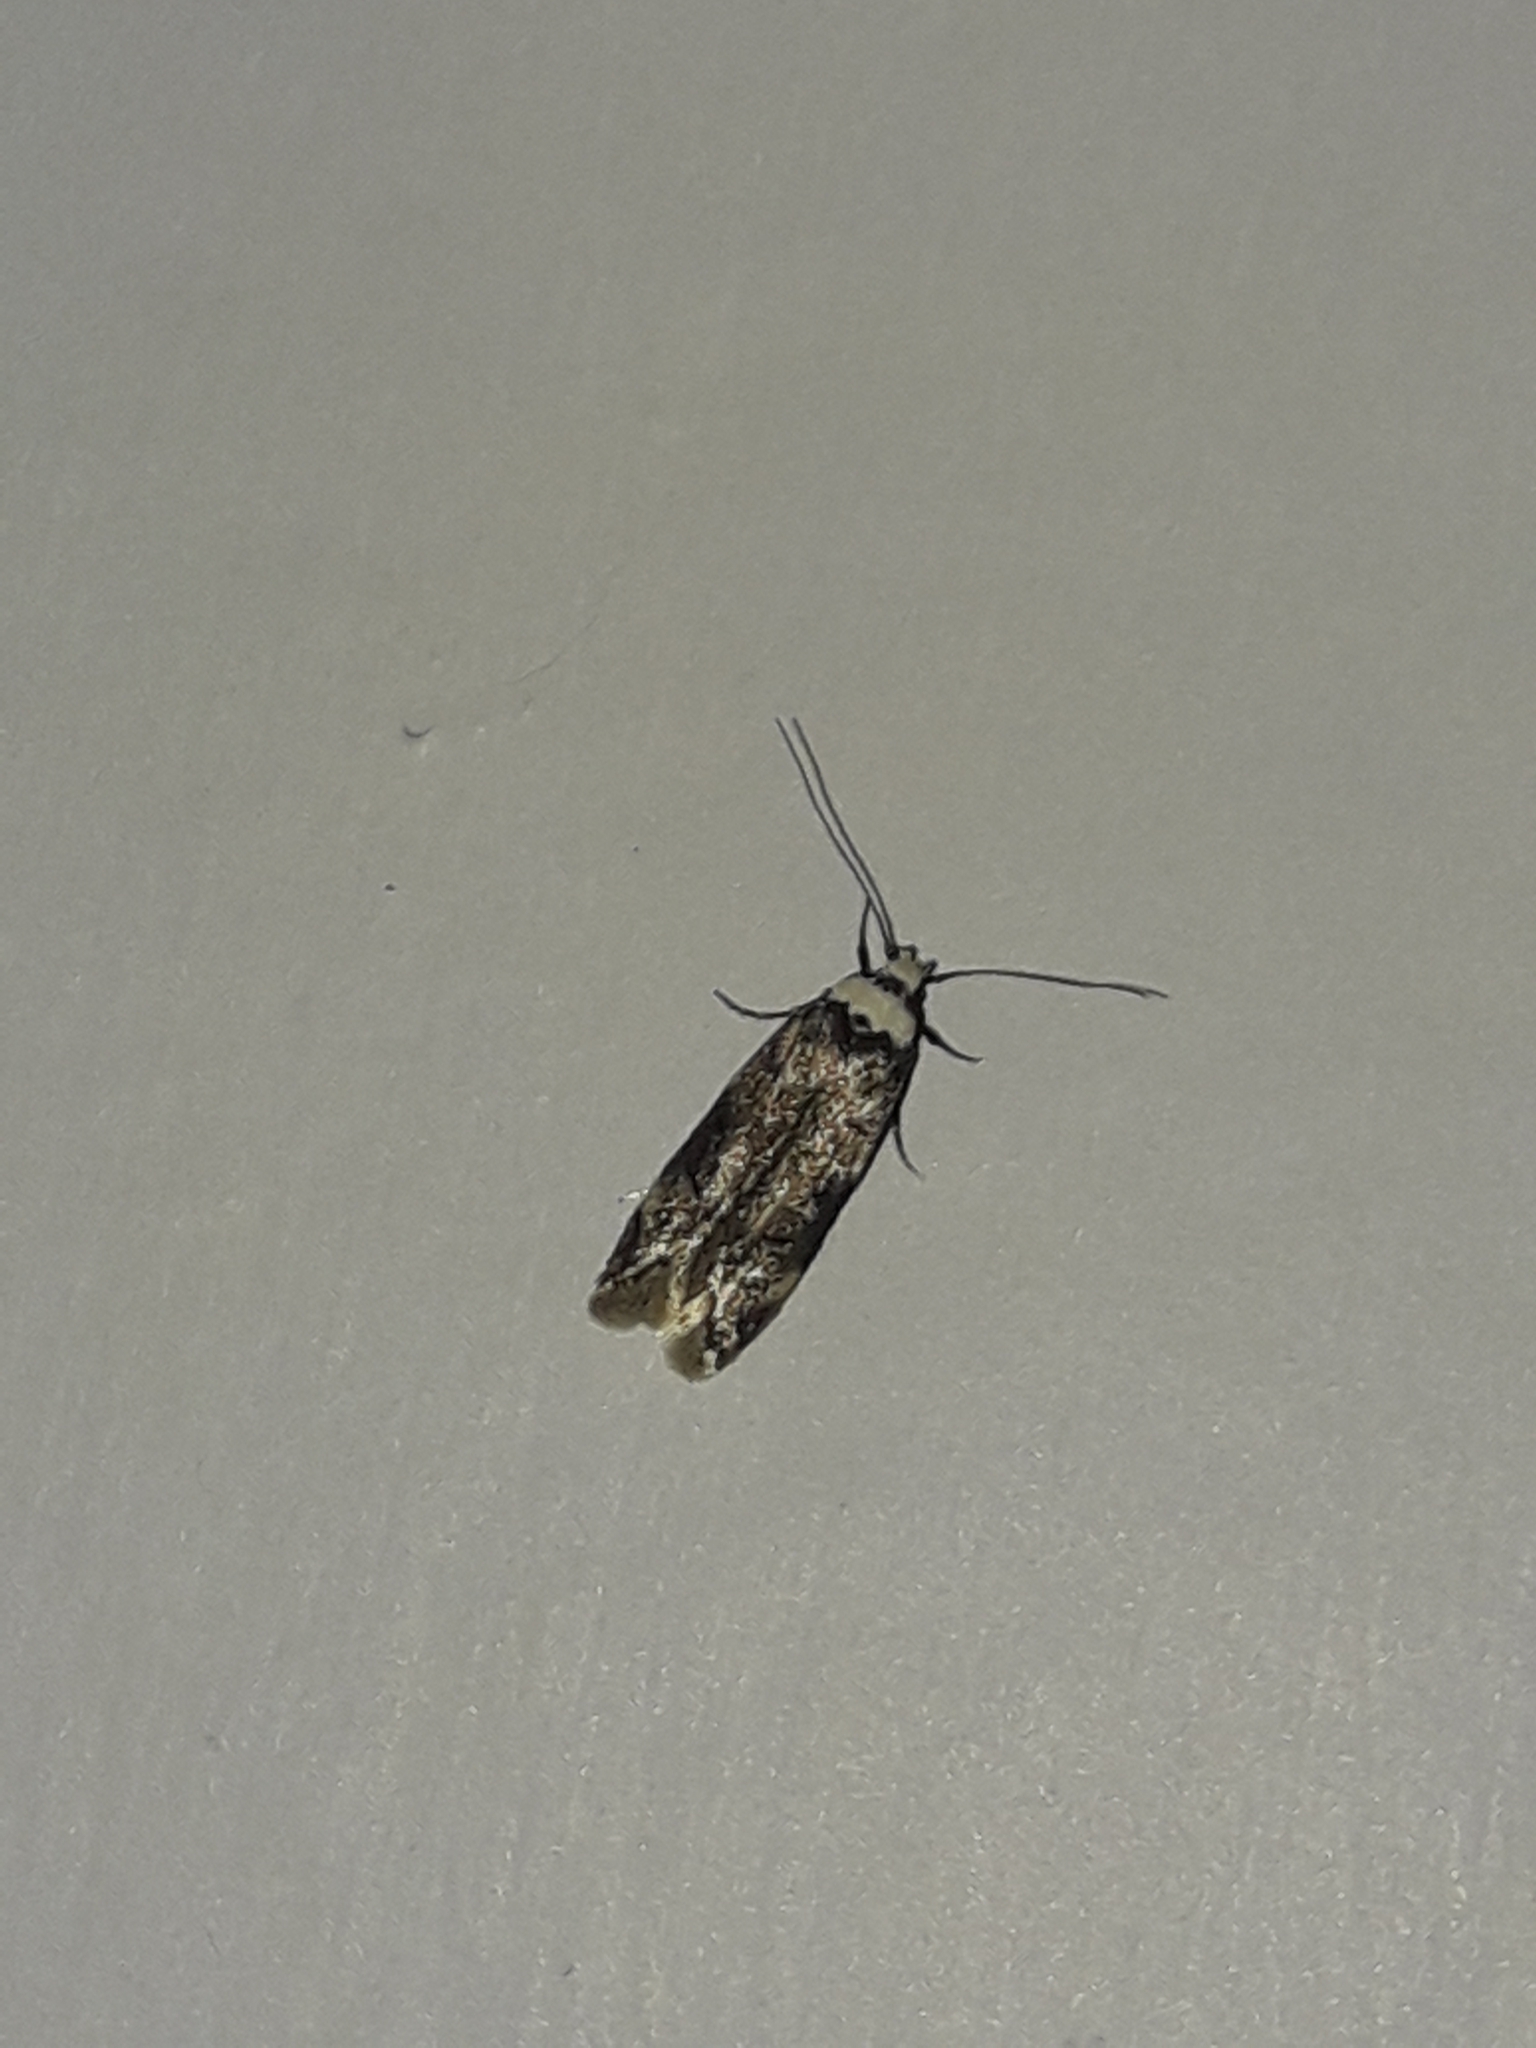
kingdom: Animalia
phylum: Arthropoda
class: Insecta
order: Lepidoptera
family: Oecophoridae
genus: Endrosis
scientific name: Endrosis sarcitrella
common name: White-shouldered house moth
